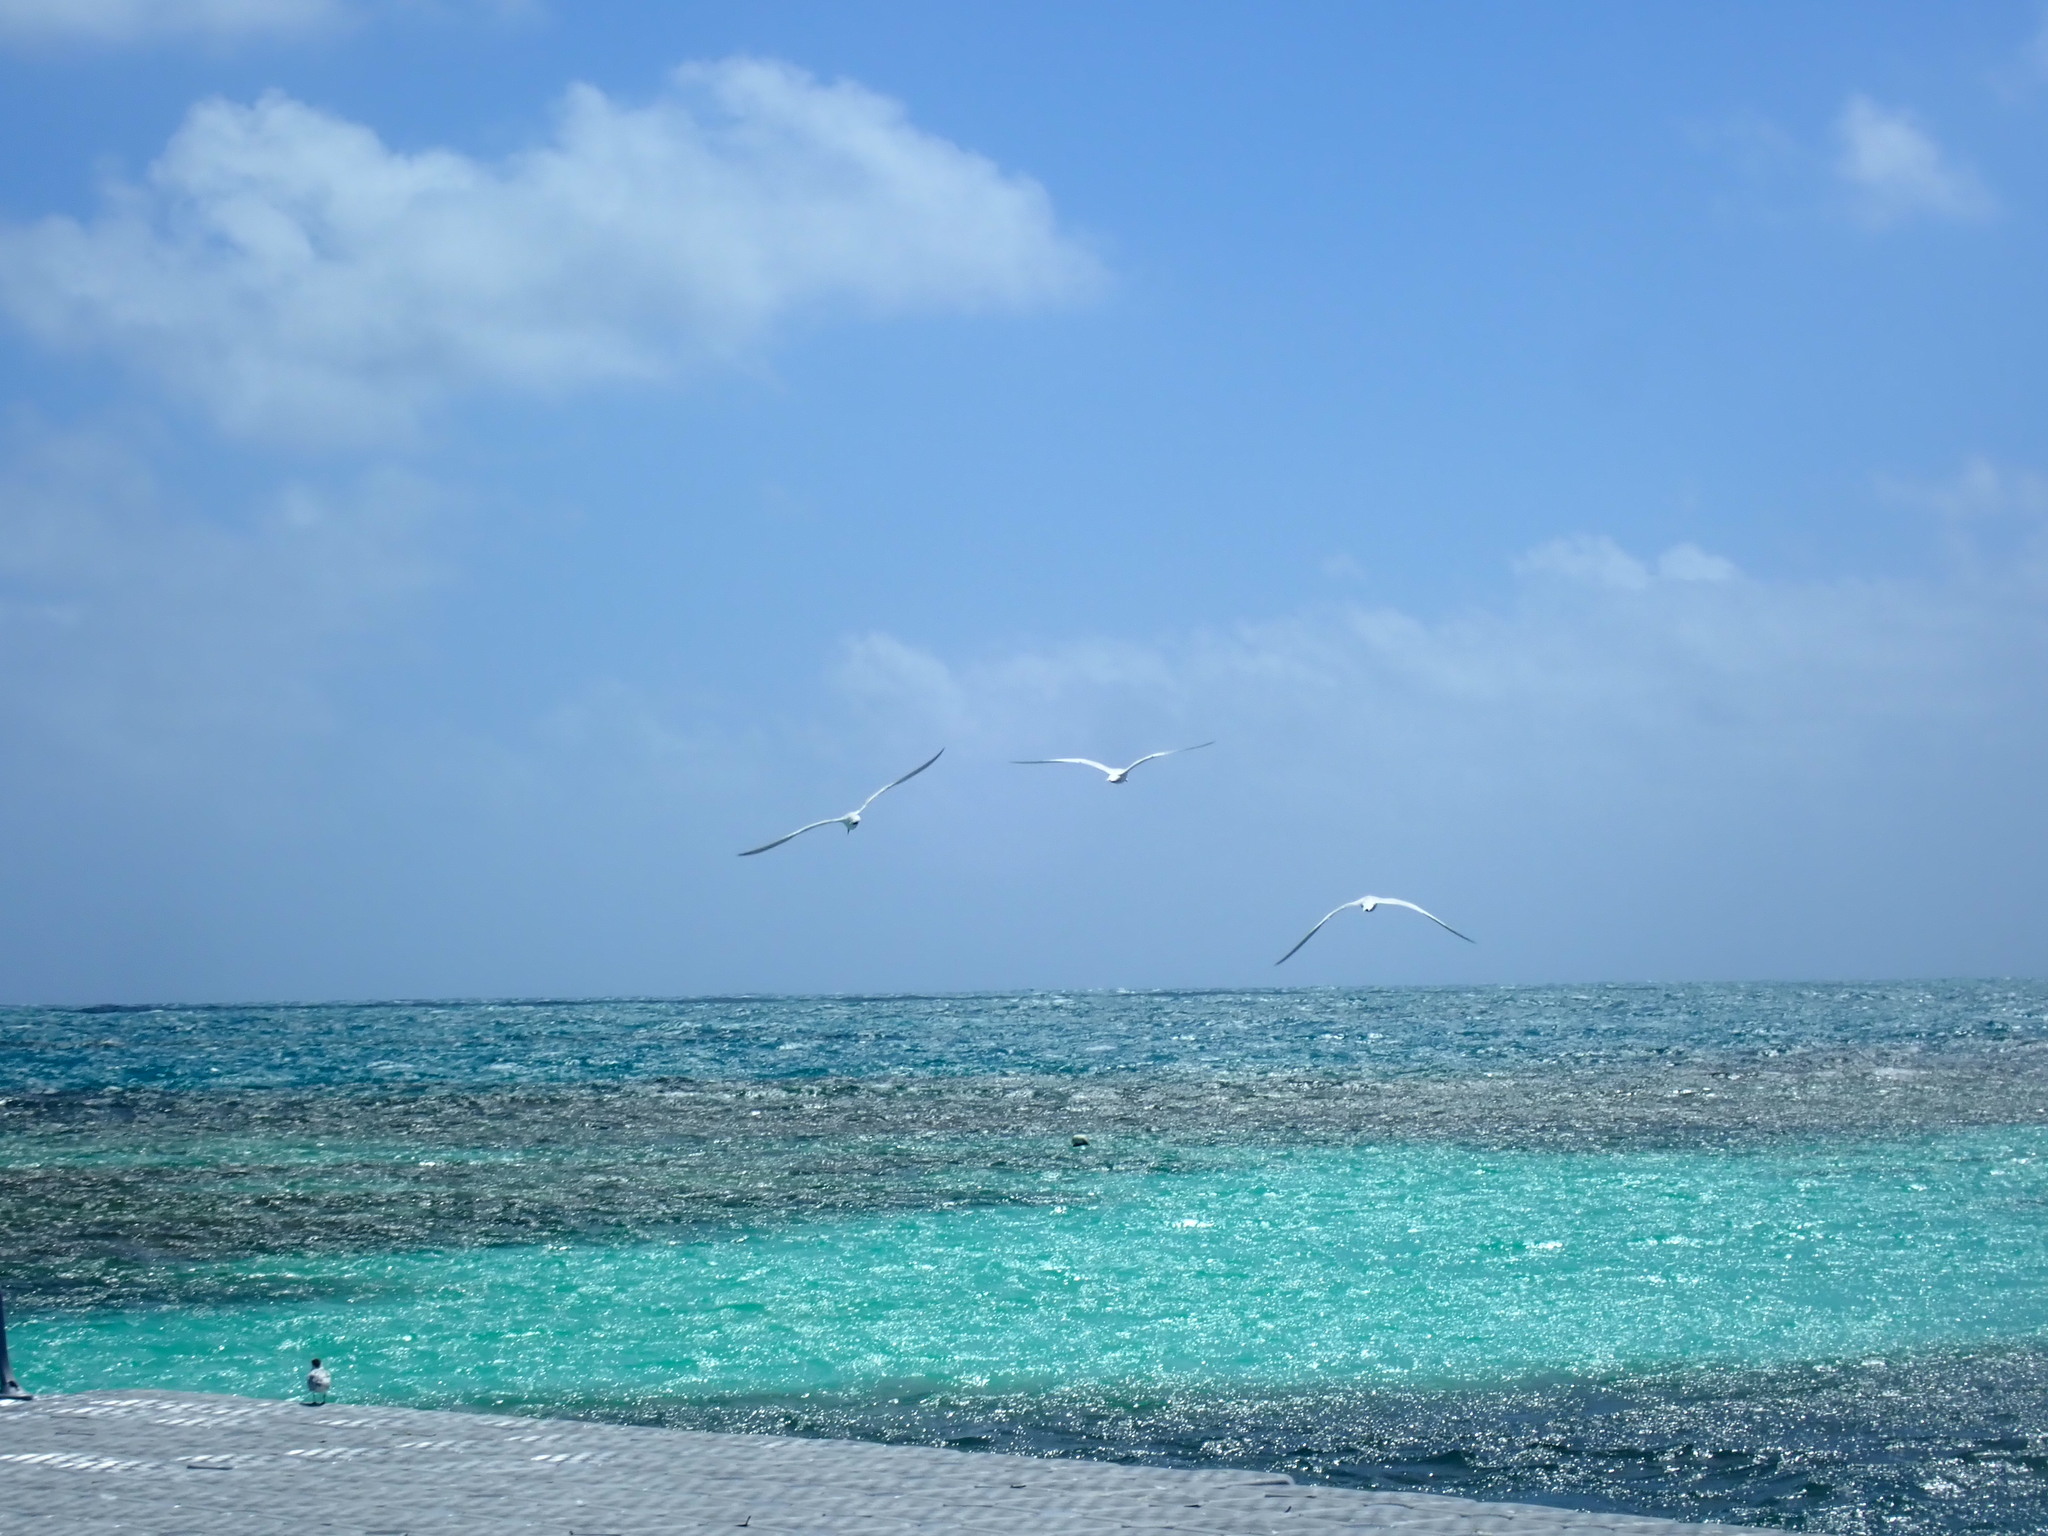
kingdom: Animalia
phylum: Chordata
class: Aves
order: Charadriiformes
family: Laridae
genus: Thalasseus
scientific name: Thalasseus maximus
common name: Royal tern
